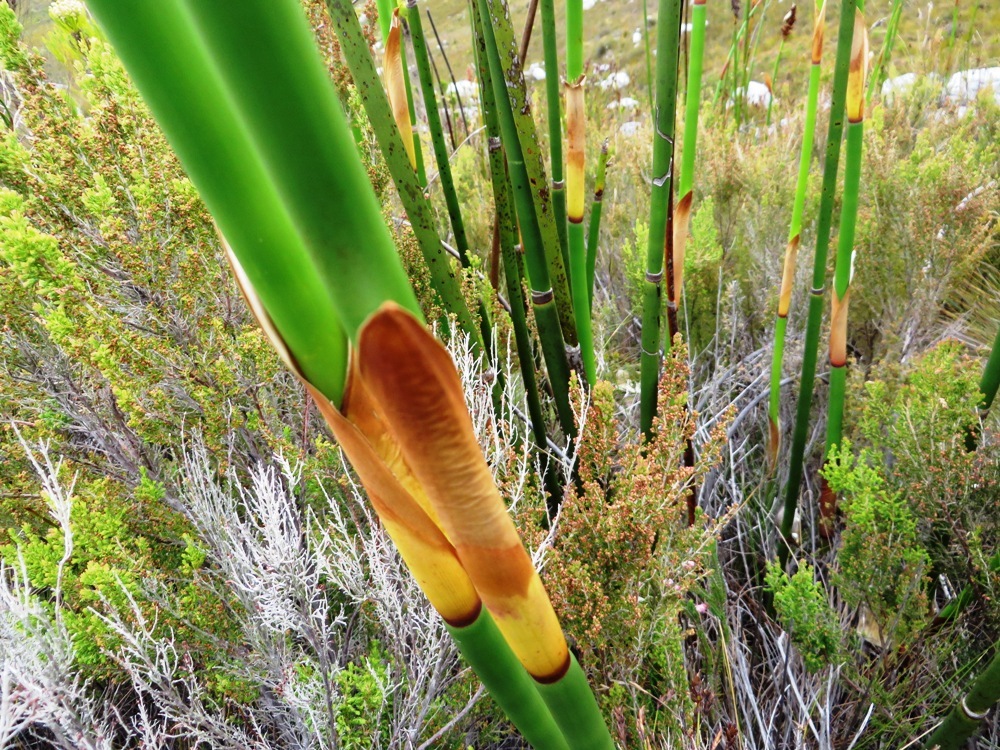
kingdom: Plantae
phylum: Tracheophyta
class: Liliopsida
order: Poales
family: Restionaceae
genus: Elegia
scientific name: Elegia mucronata
